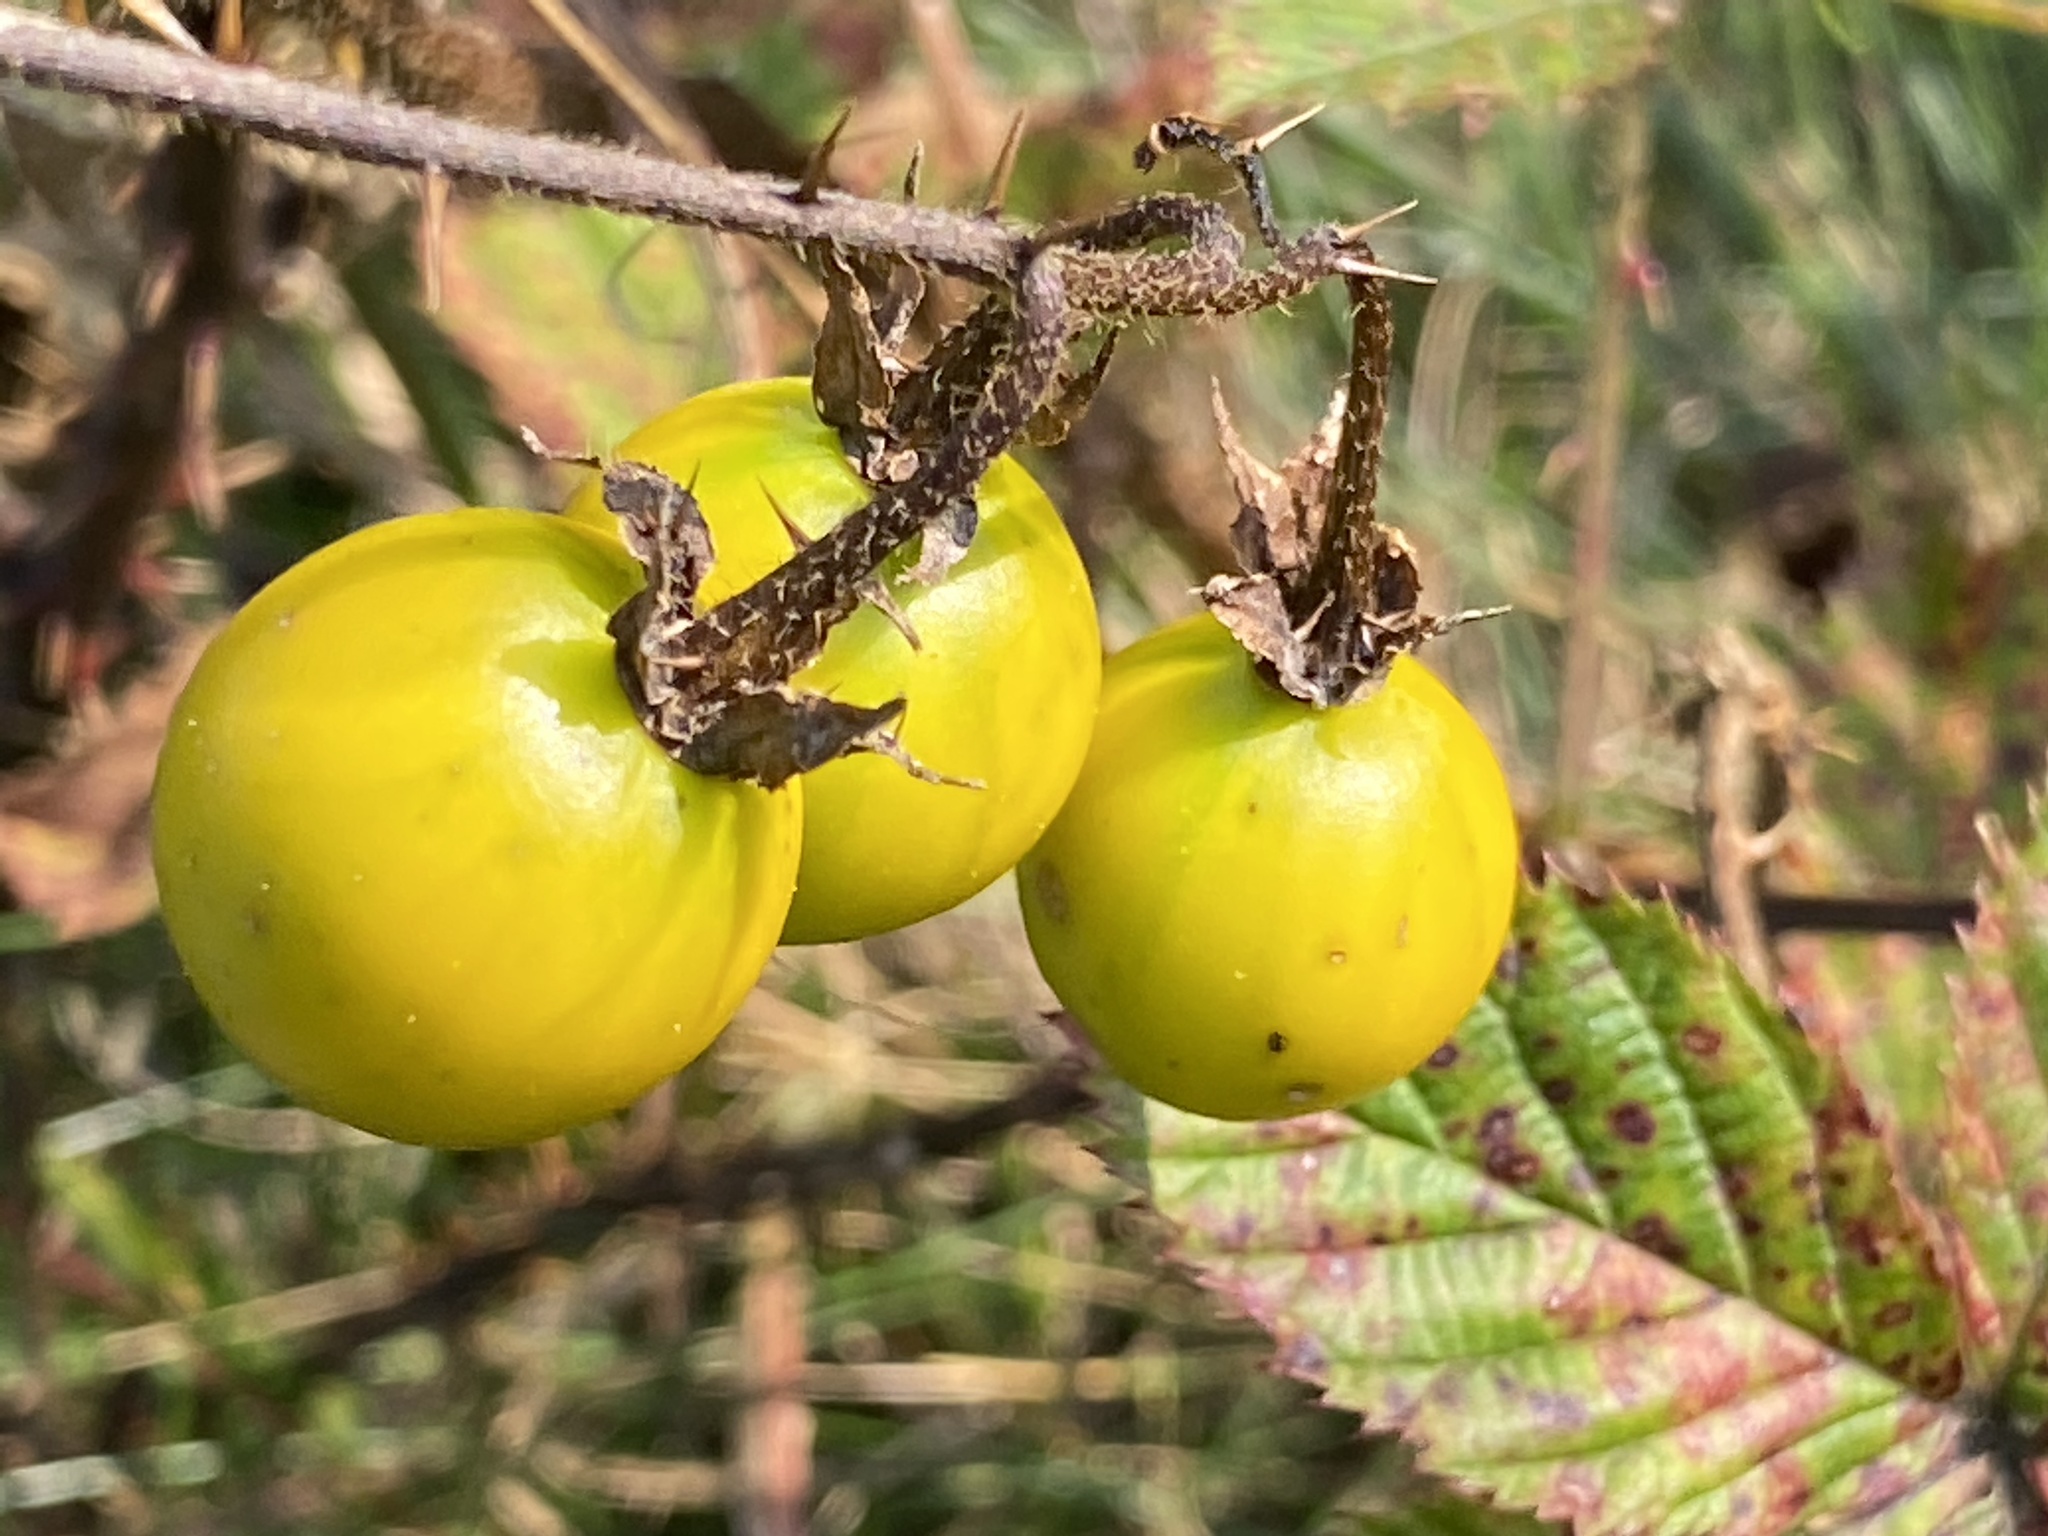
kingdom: Plantae
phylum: Tracheophyta
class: Magnoliopsida
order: Solanales
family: Solanaceae
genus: Solanum
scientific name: Solanum carolinense
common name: Horse-nettle
